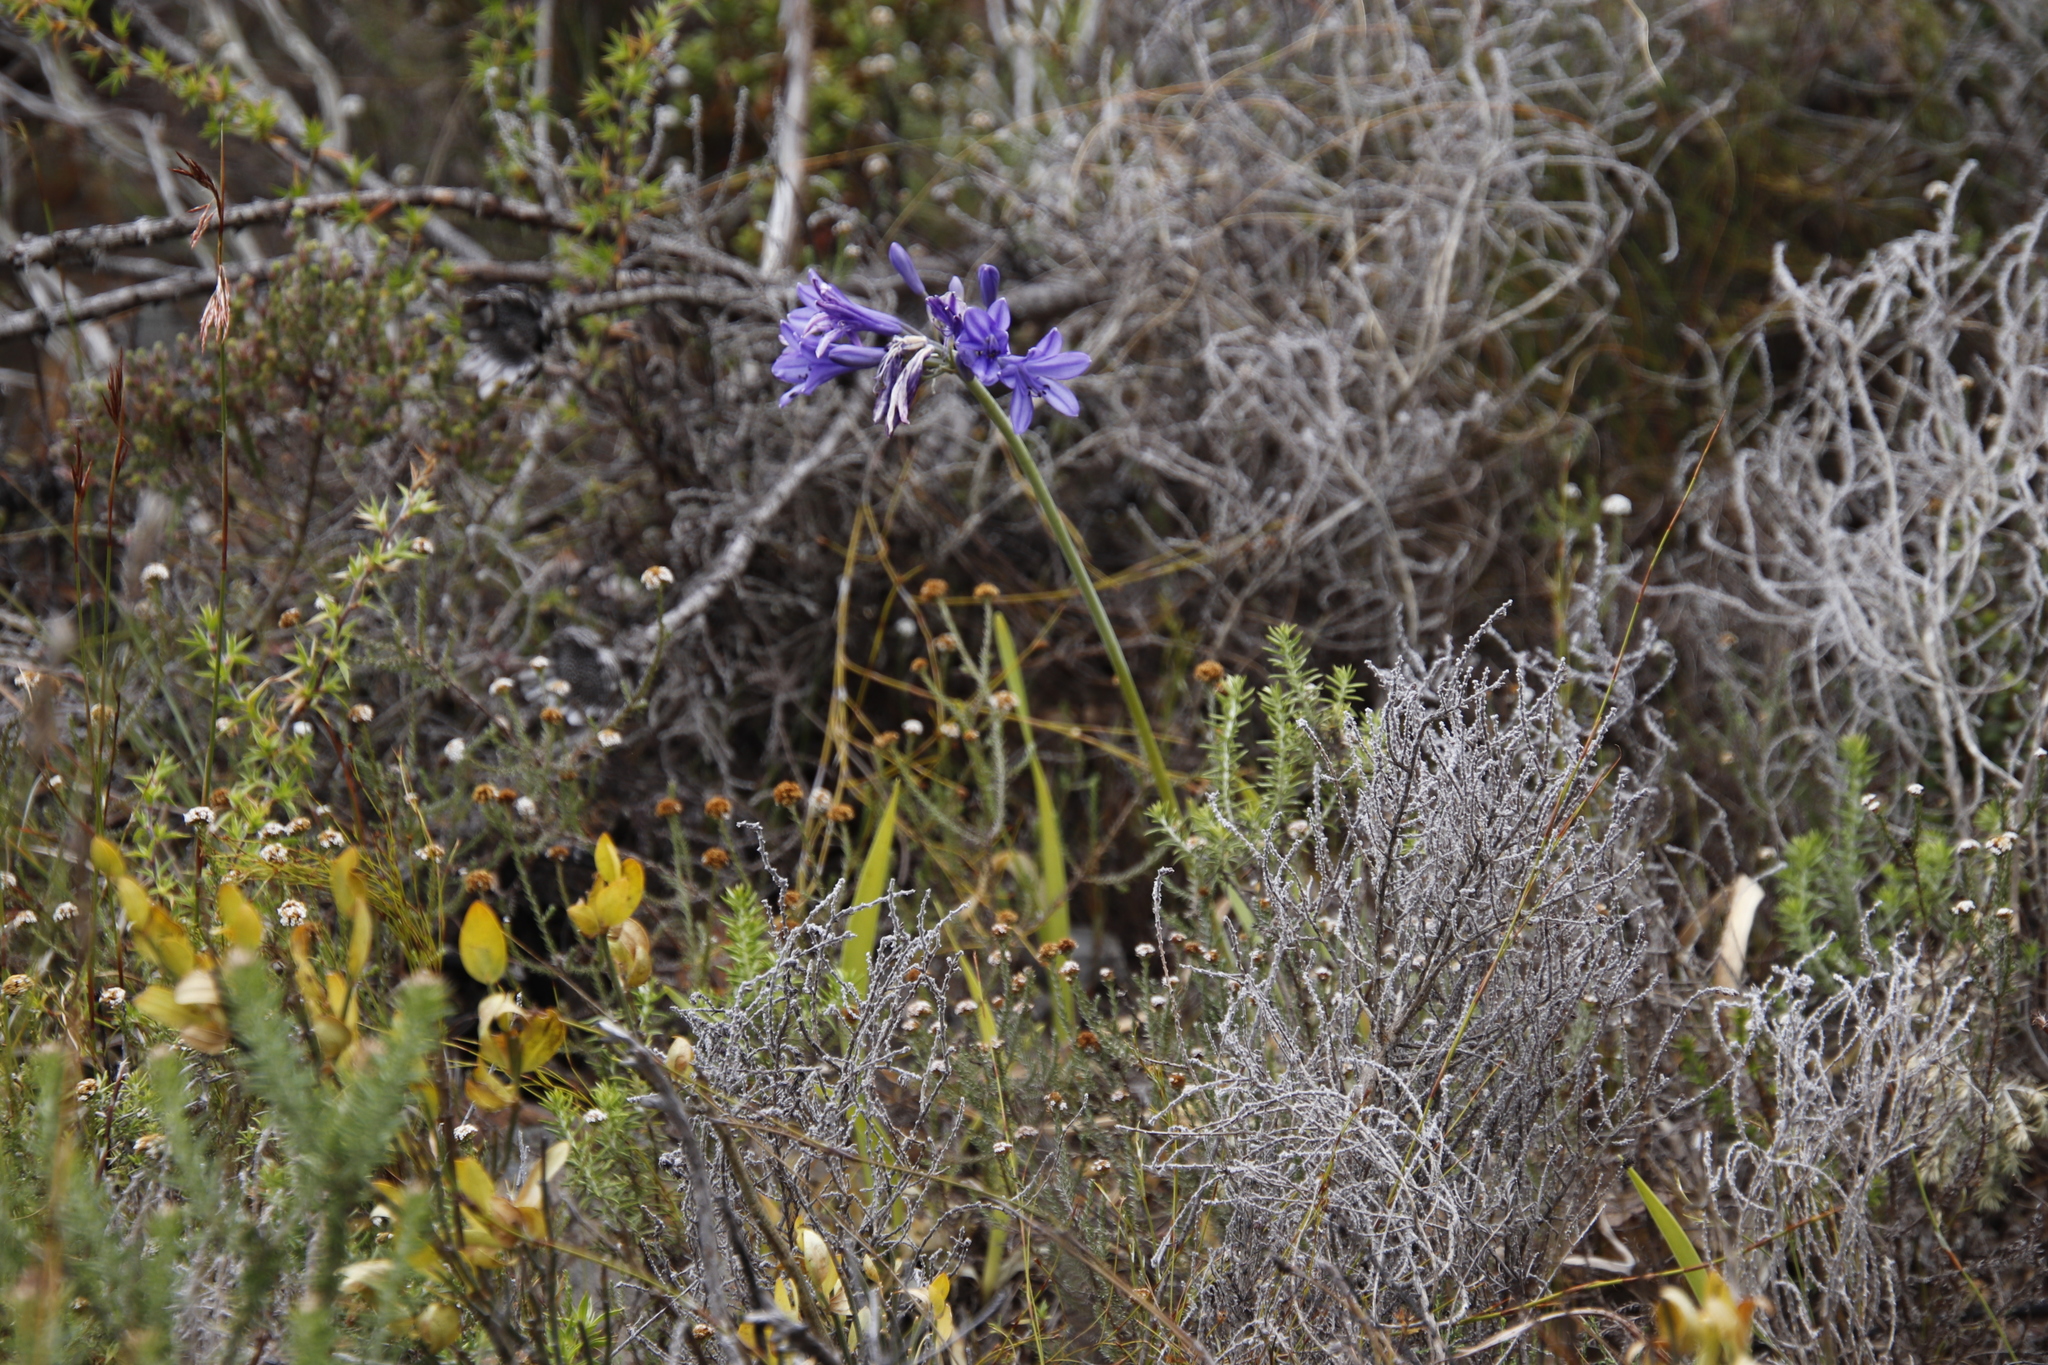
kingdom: Plantae
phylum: Tracheophyta
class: Liliopsida
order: Asparagales
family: Amaryllidaceae
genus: Agapanthus
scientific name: Agapanthus africanus
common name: Lily-of-the-nile
